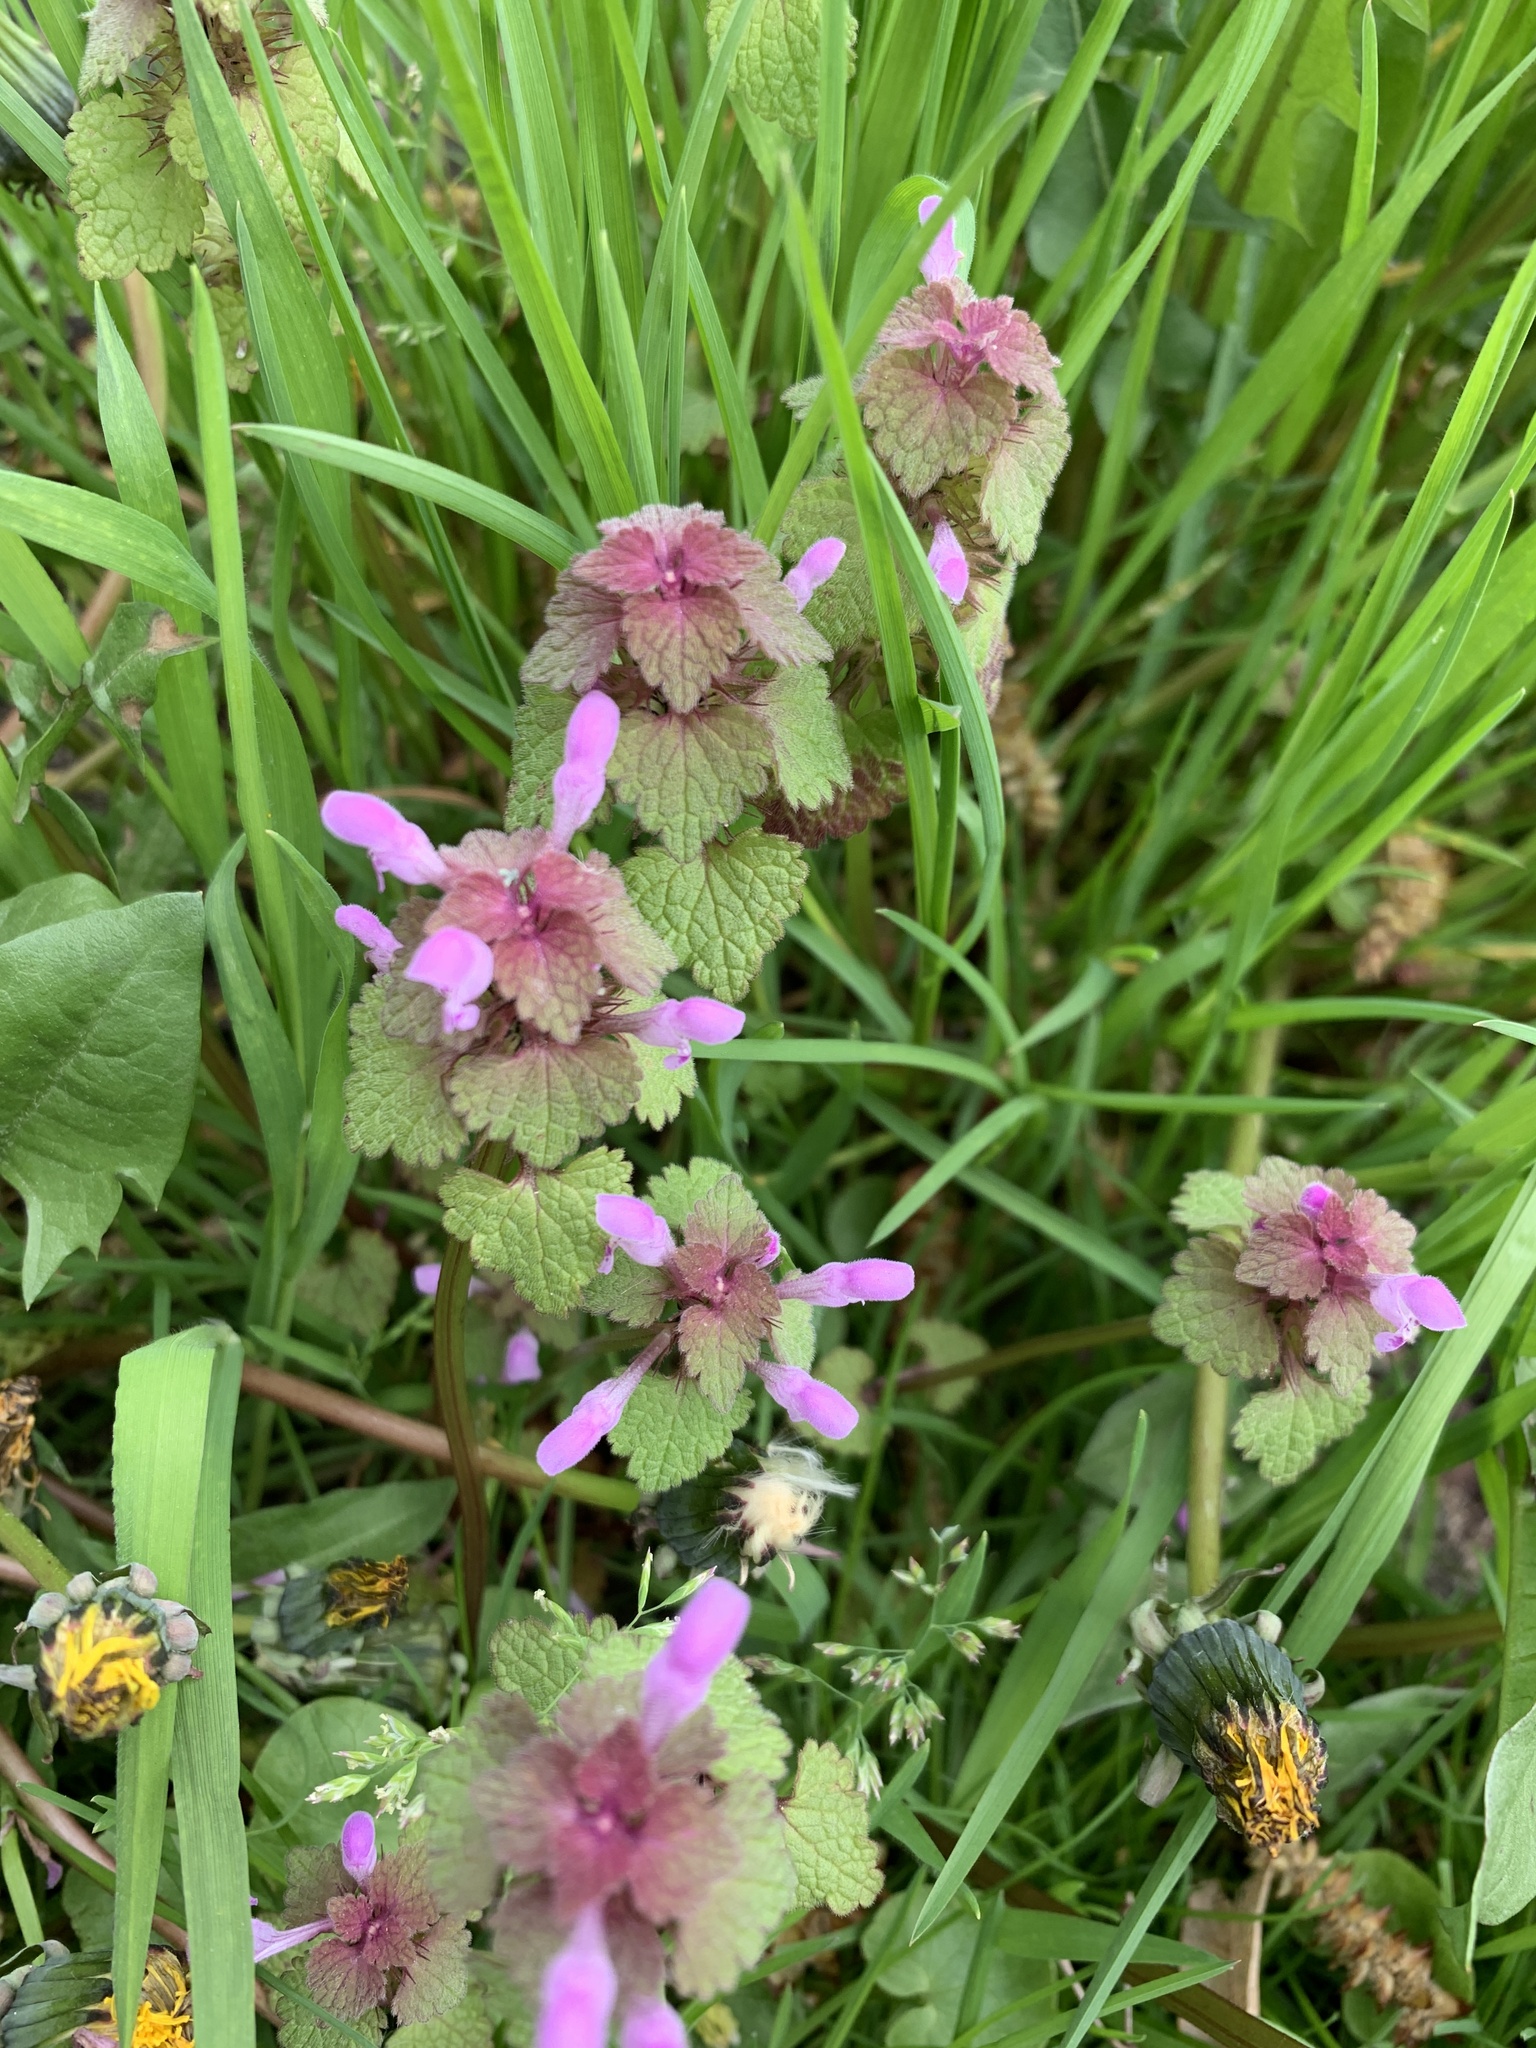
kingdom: Plantae
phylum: Tracheophyta
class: Magnoliopsida
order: Lamiales
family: Lamiaceae
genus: Lamium
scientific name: Lamium purpureum
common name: Red dead-nettle
